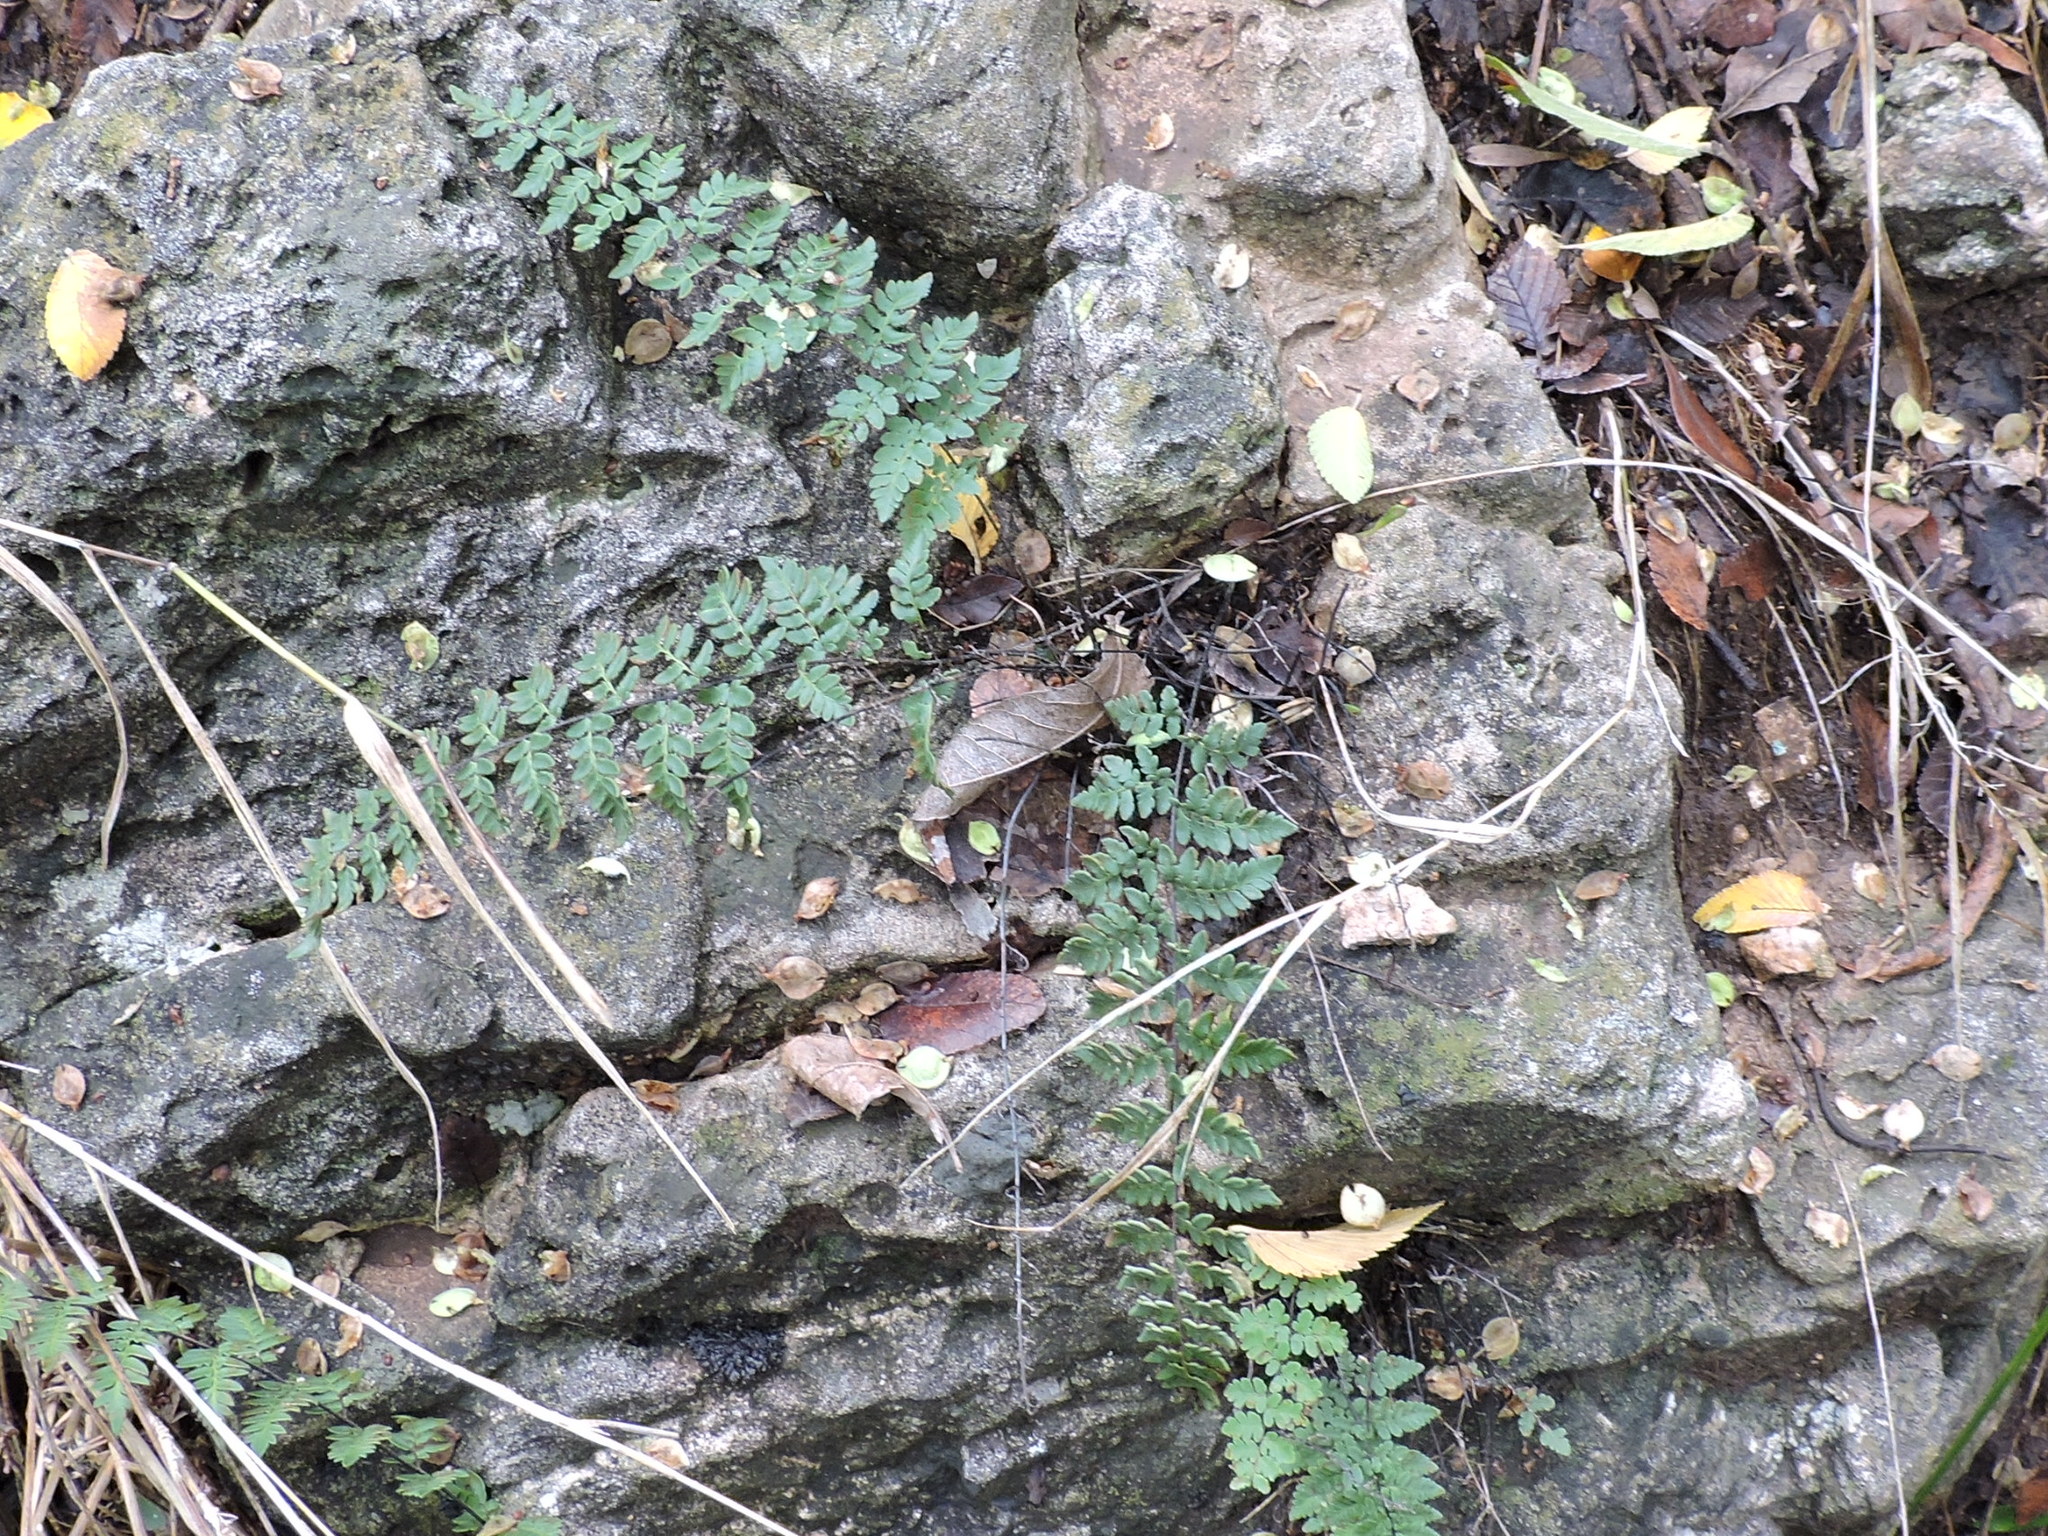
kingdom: Plantae
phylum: Tracheophyta
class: Polypodiopsida
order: Polypodiales
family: Pteridaceae
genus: Myriopteris
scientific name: Myriopteris alabamensis
